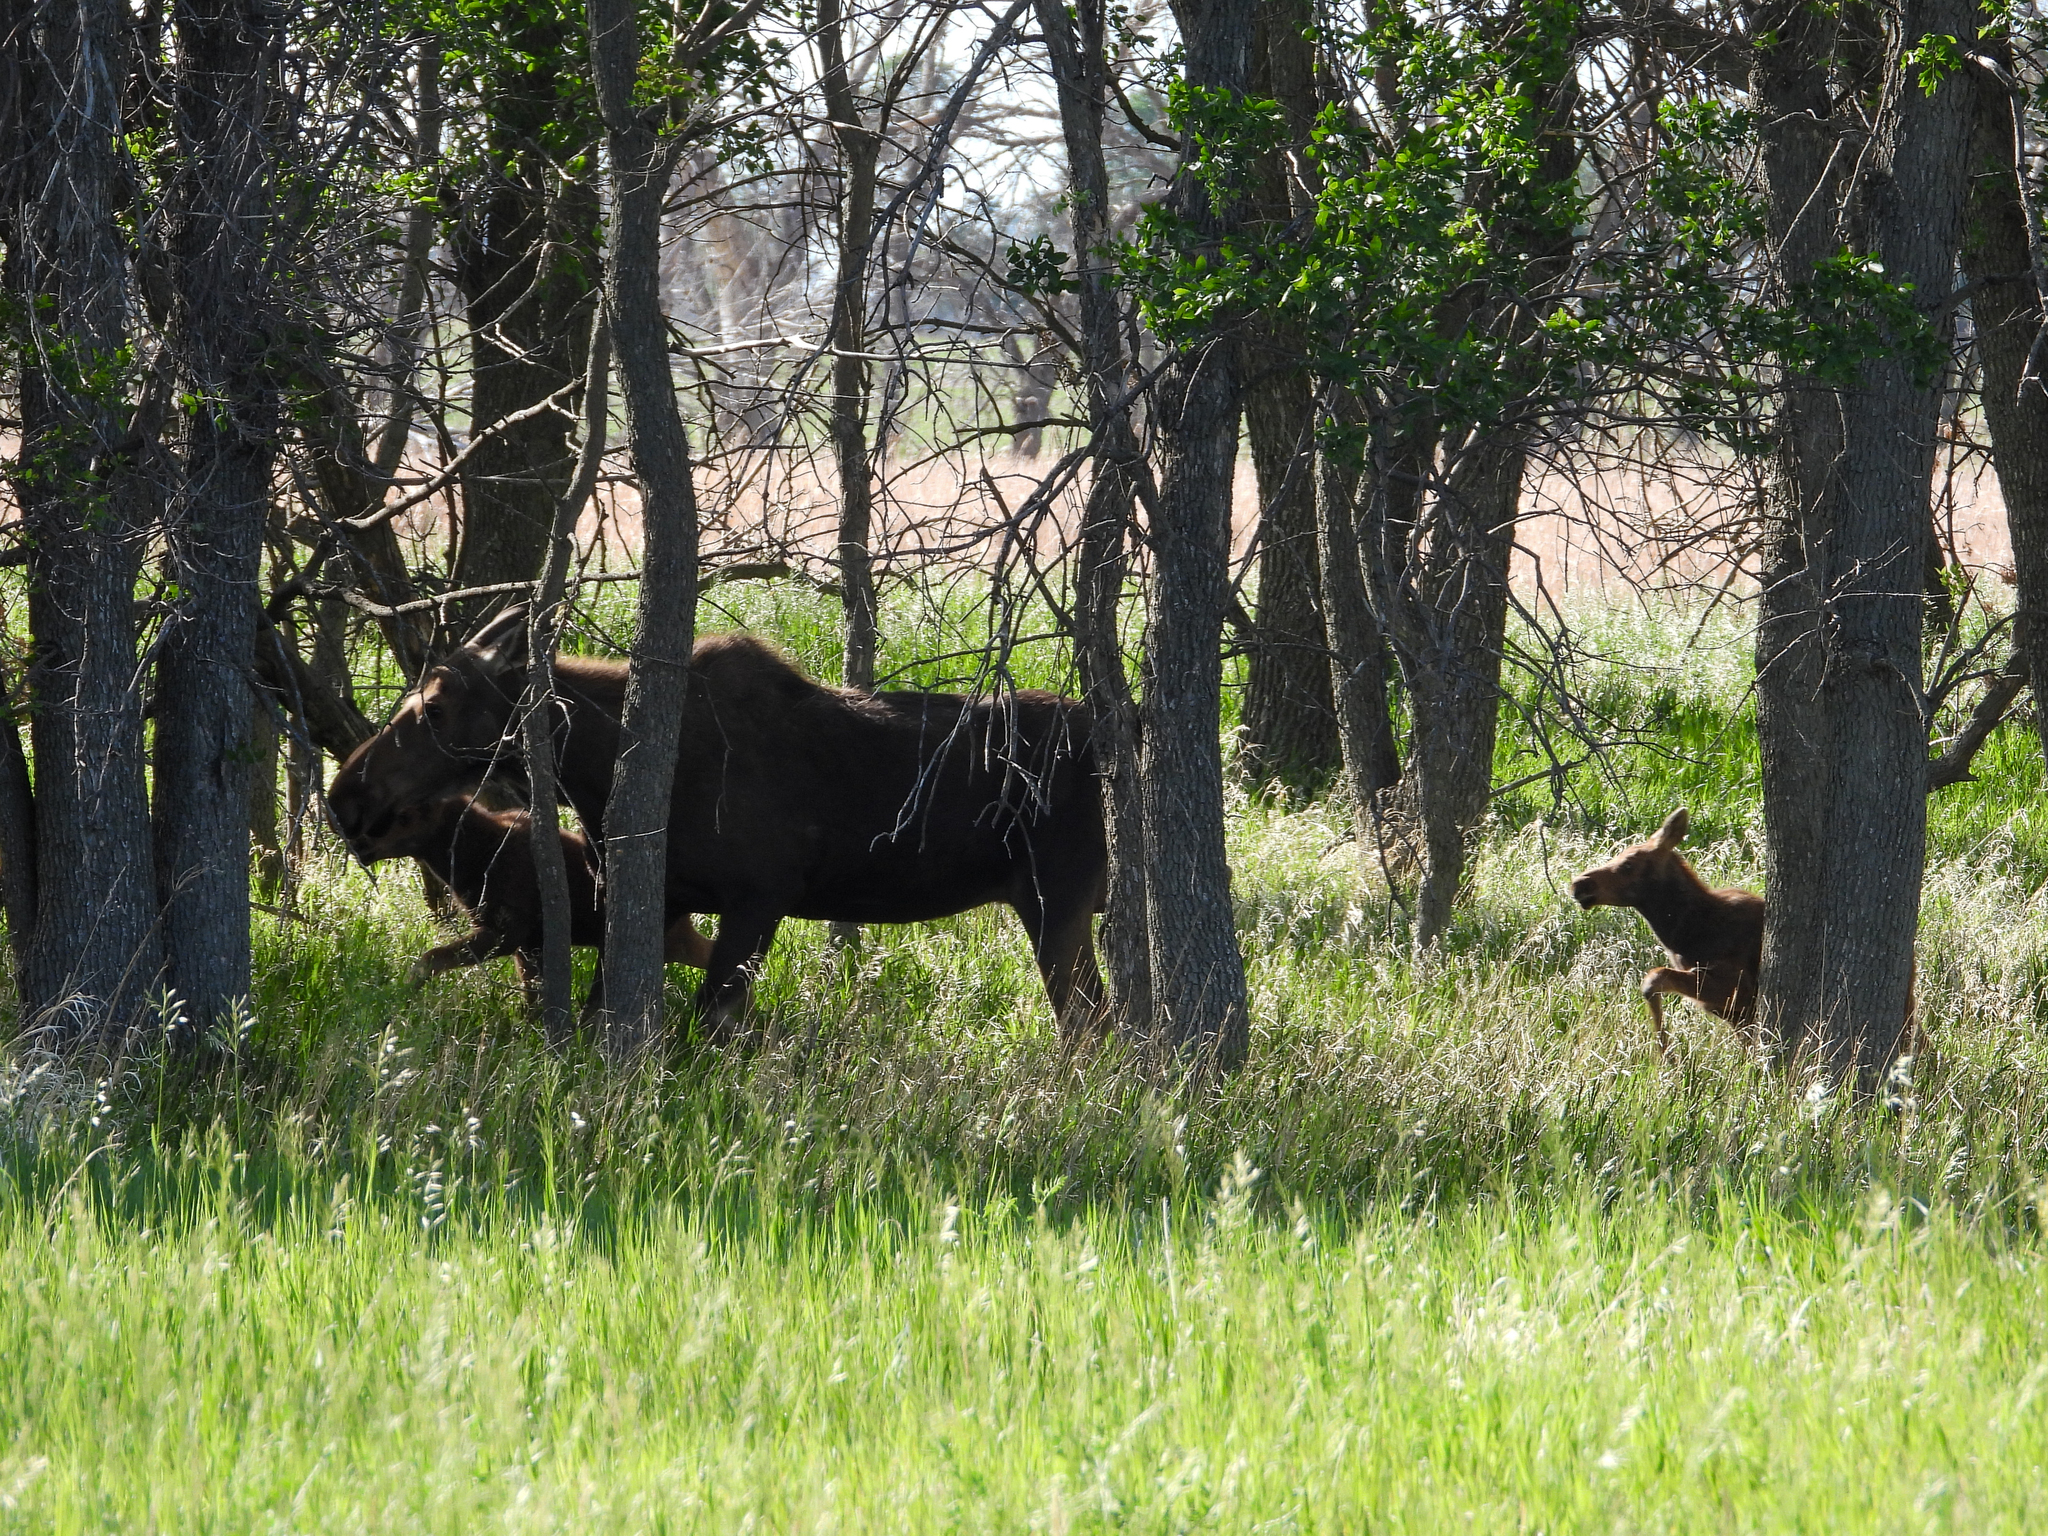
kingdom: Animalia
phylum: Chordata
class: Mammalia
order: Artiodactyla
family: Cervidae
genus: Alces
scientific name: Alces alces
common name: Moose
